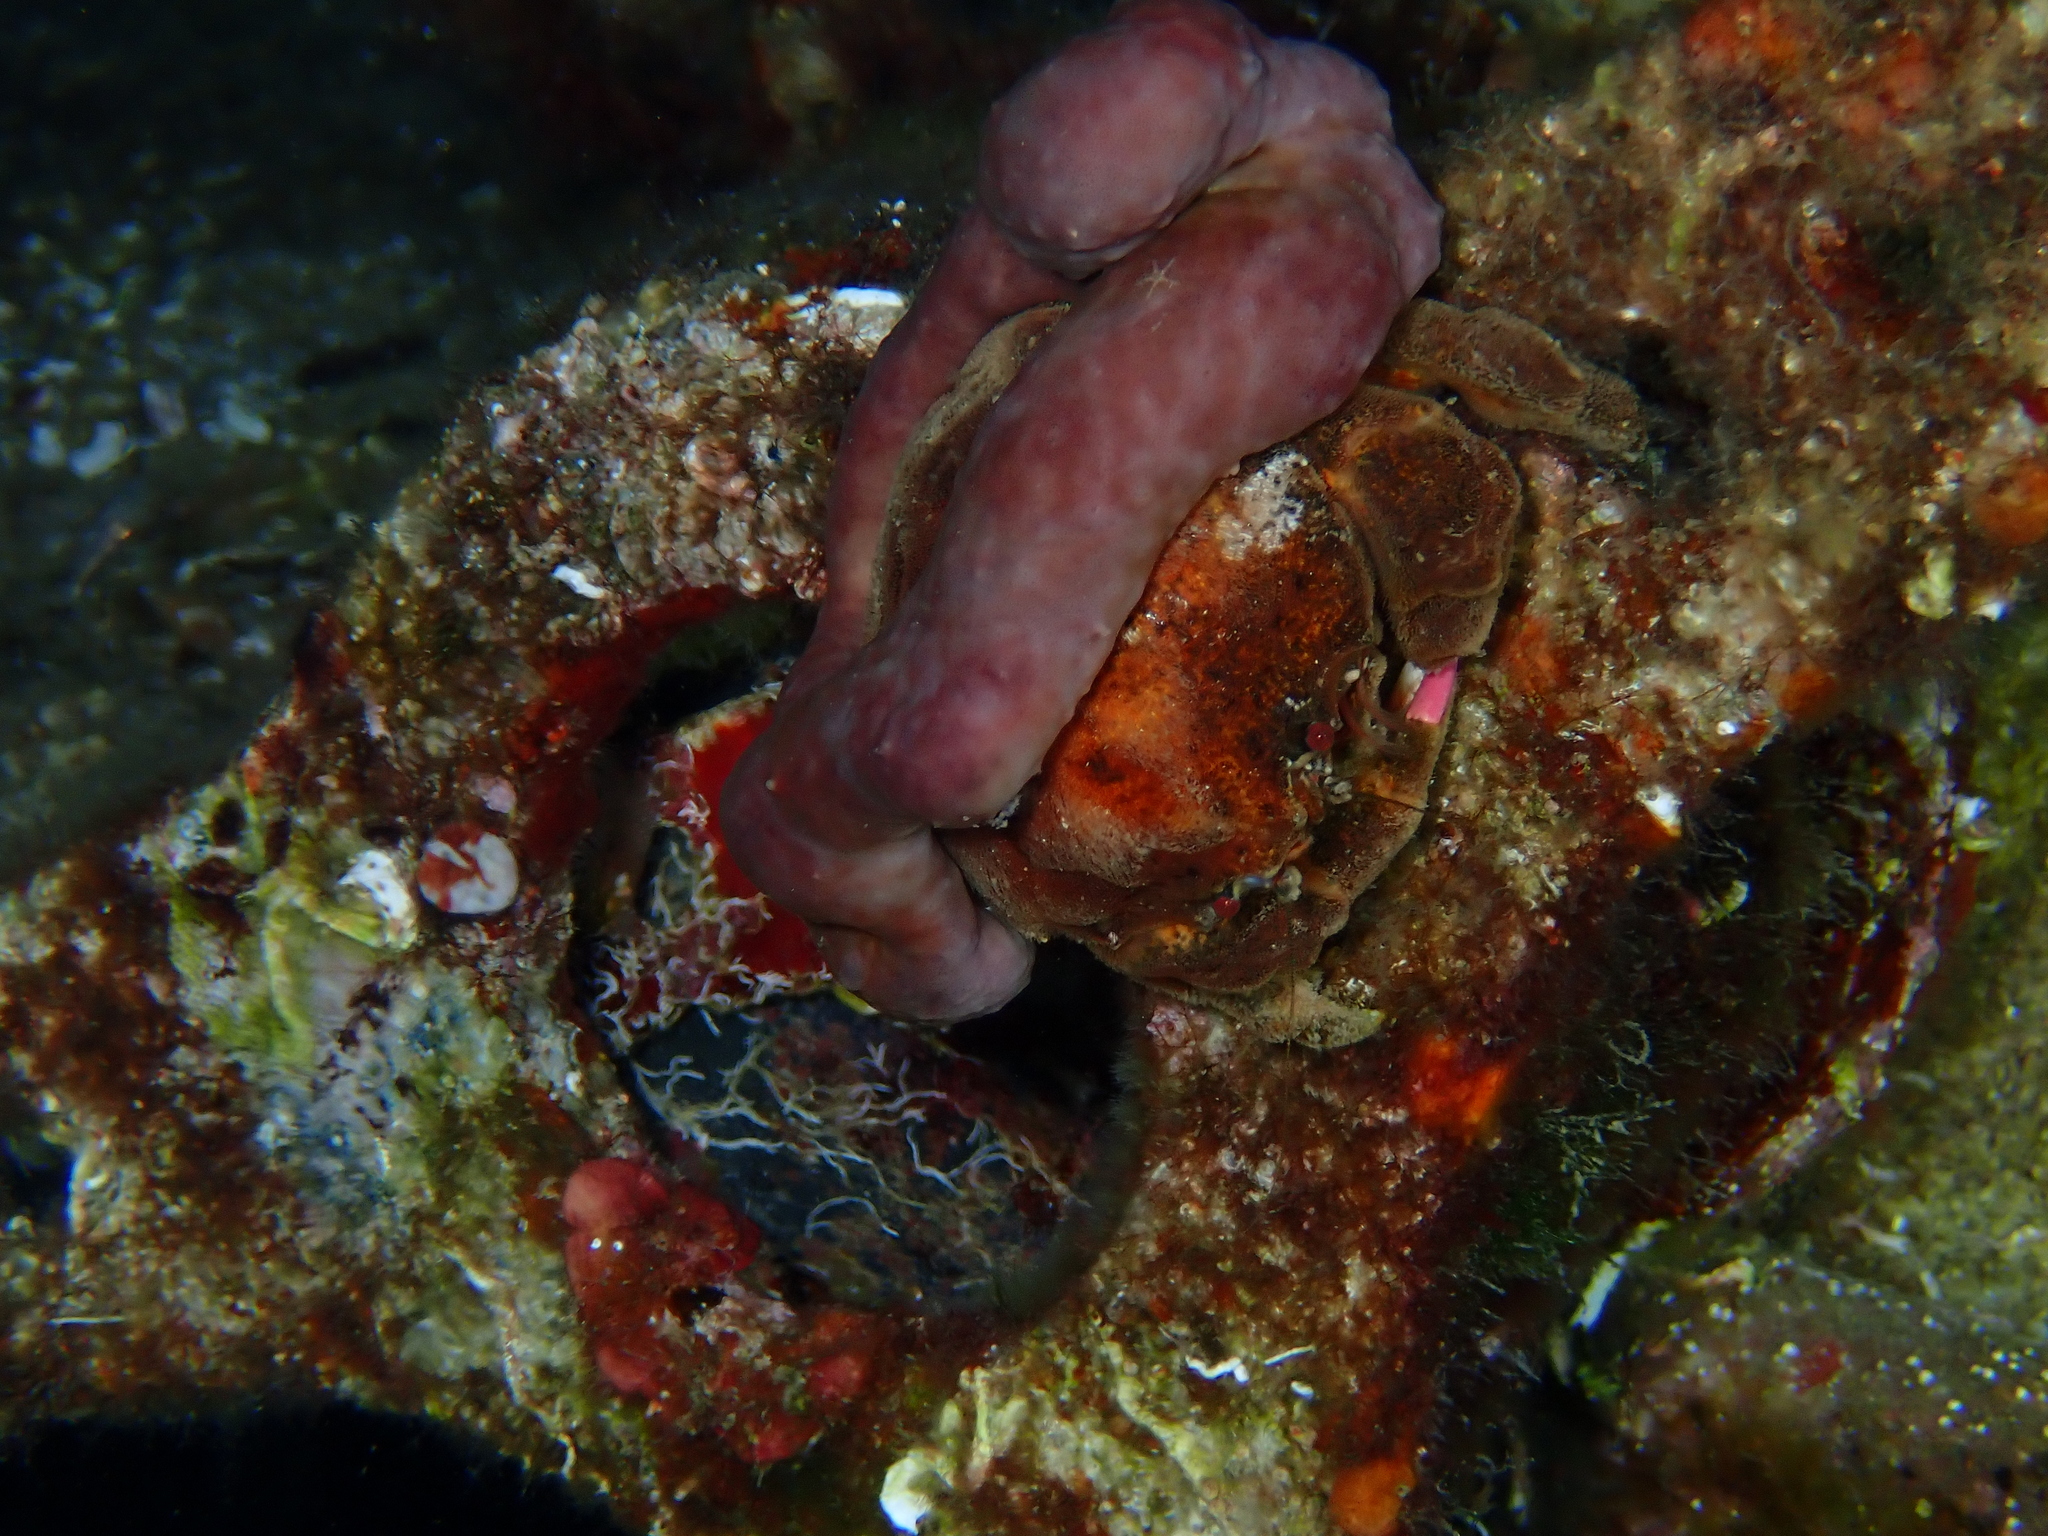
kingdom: Animalia
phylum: Arthropoda
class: Malacostraca
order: Decapoda
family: Dromiidae
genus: Dromia
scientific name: Dromia personata
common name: Sleepy crab
